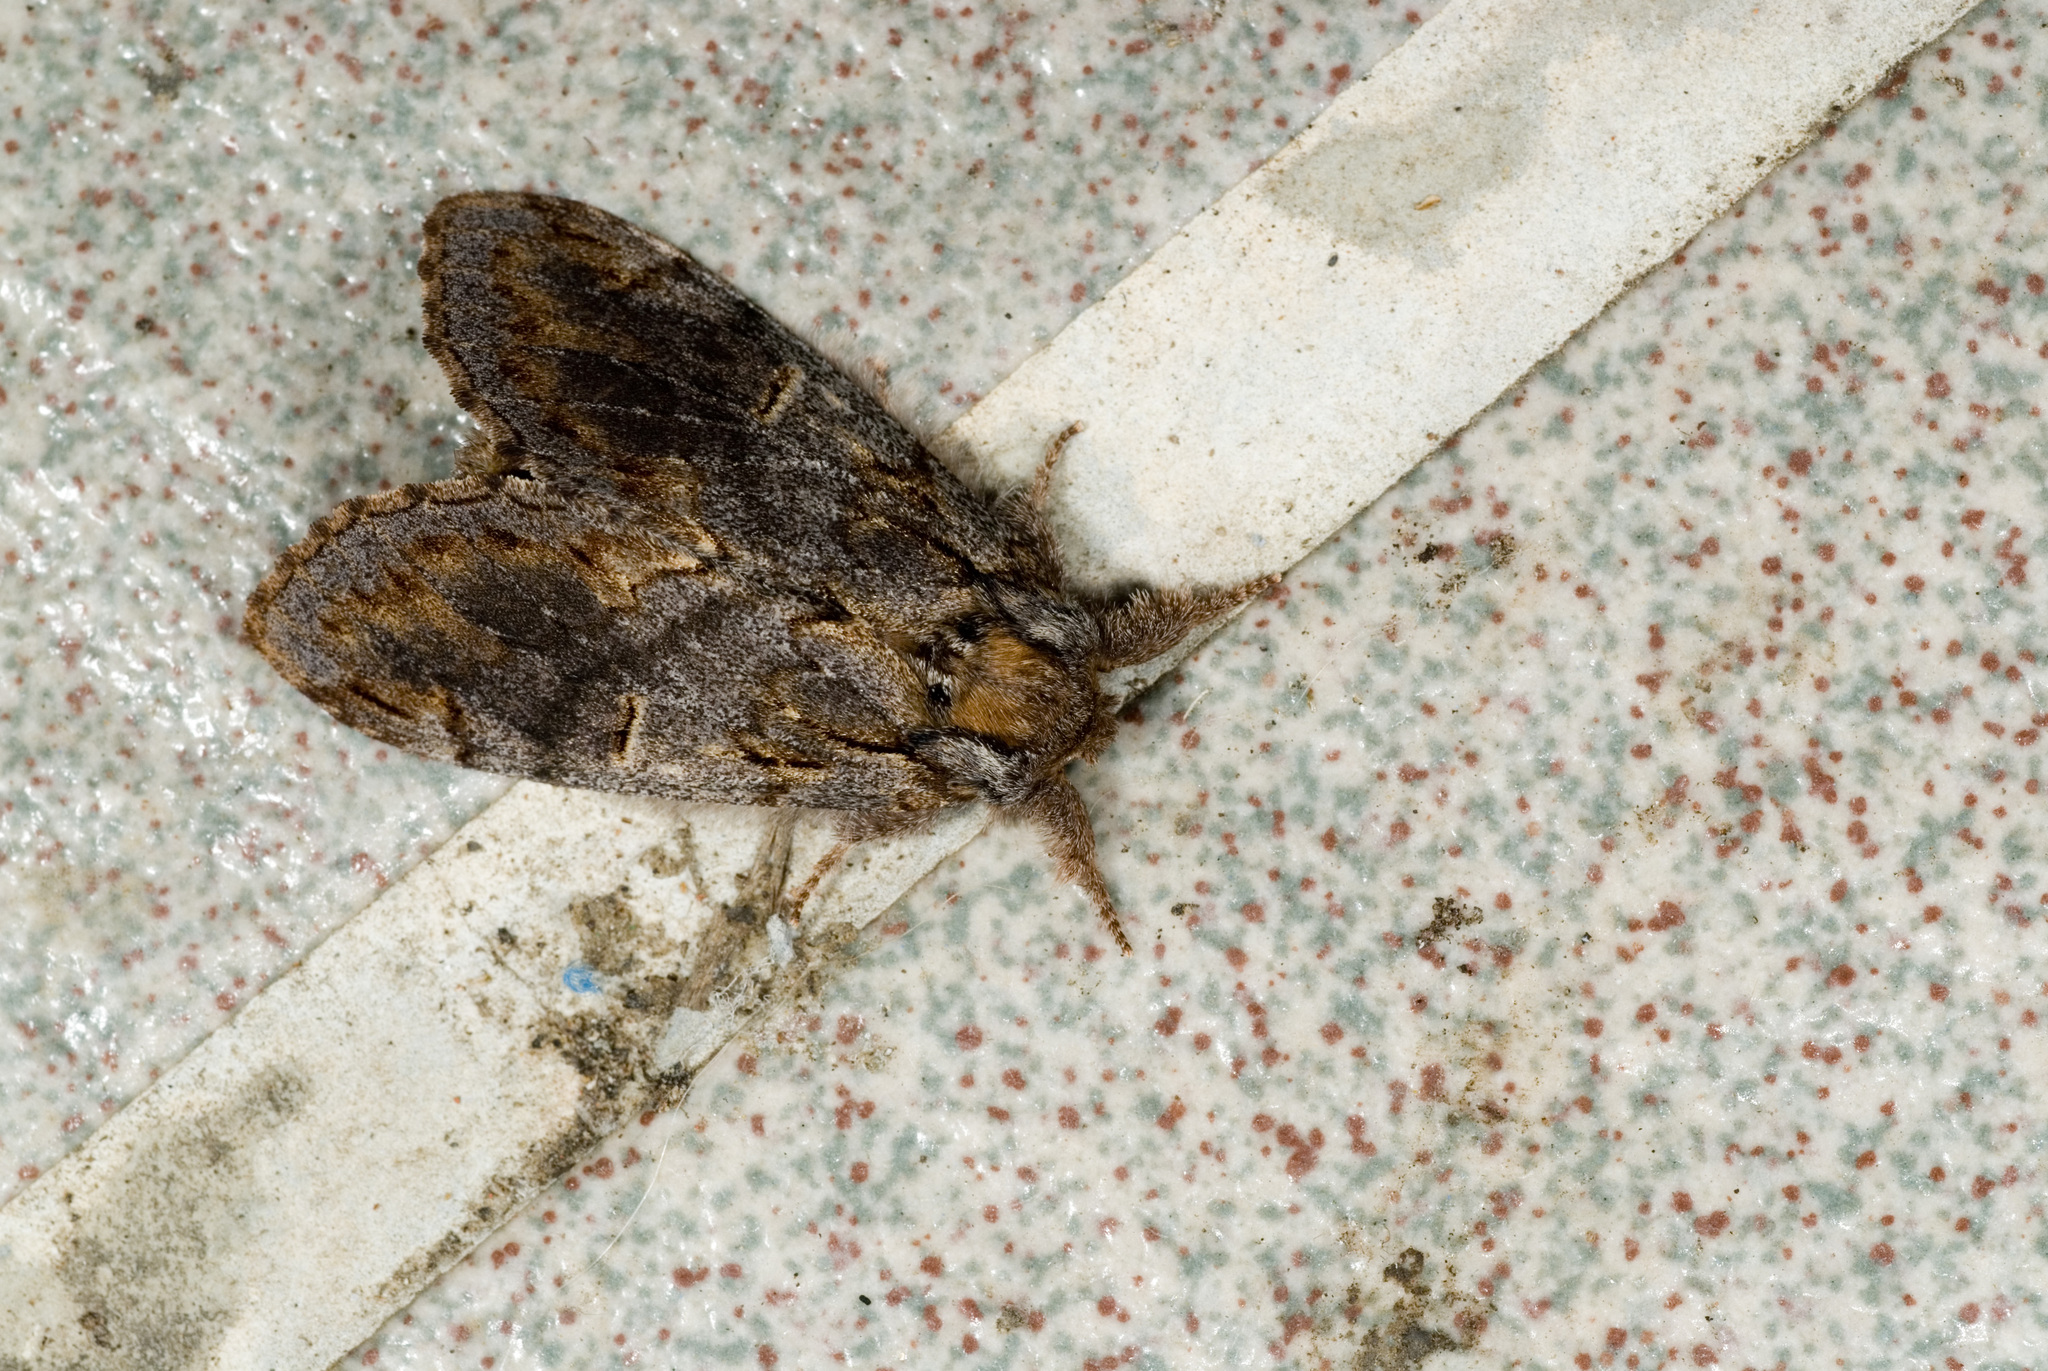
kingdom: Animalia
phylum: Arthropoda
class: Insecta
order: Lepidoptera
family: Notodontidae
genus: Notodonta
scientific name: Notodonta griseotincta
